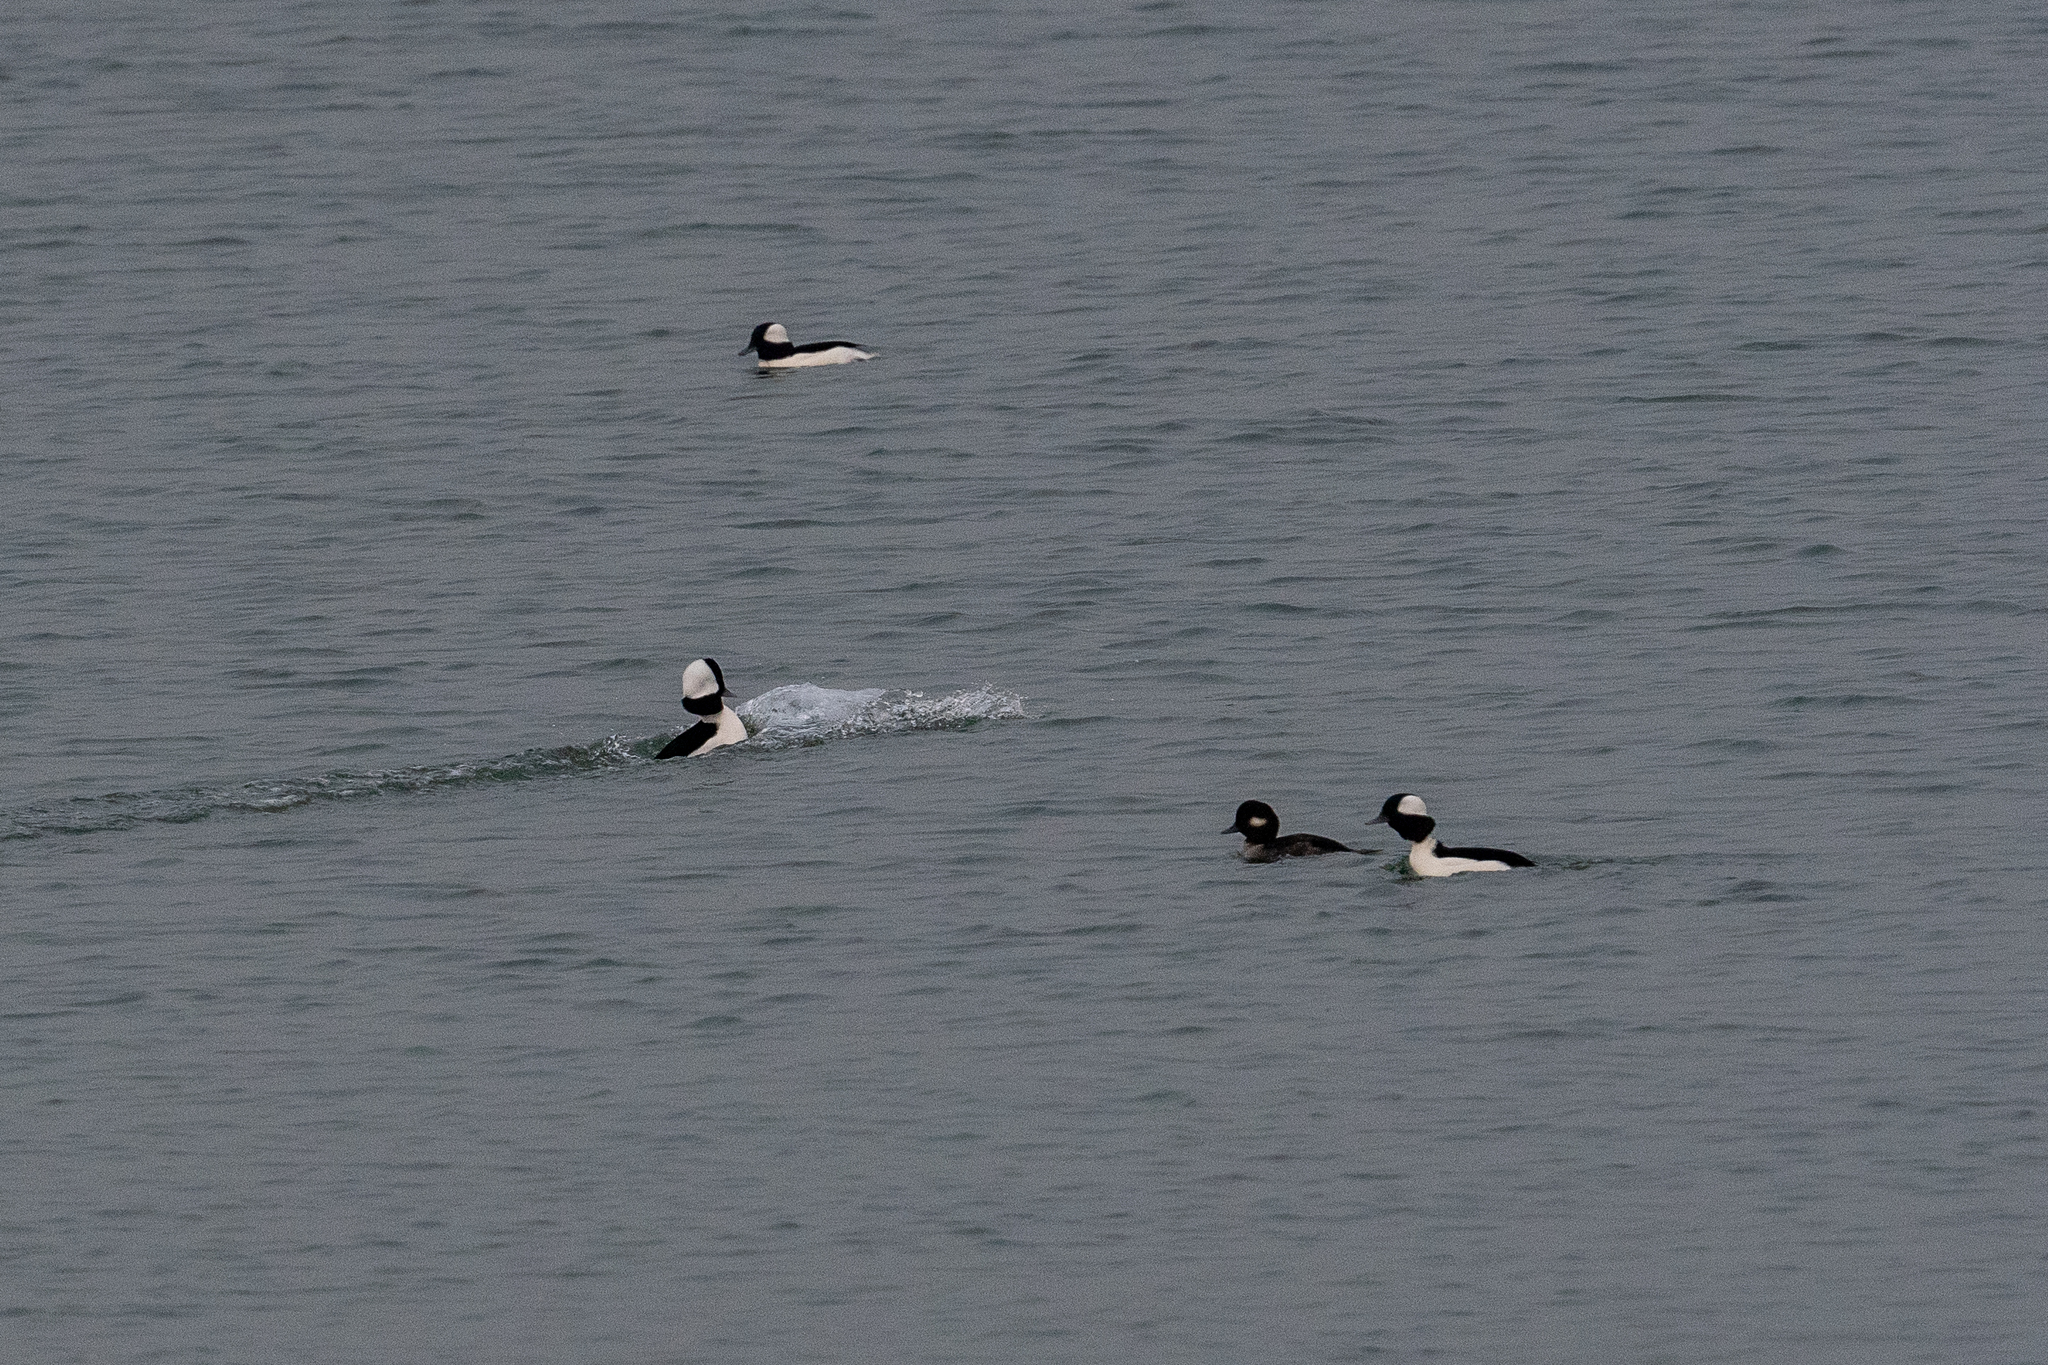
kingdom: Animalia
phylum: Chordata
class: Aves
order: Anseriformes
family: Anatidae
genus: Bucephala
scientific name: Bucephala albeola
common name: Bufflehead
